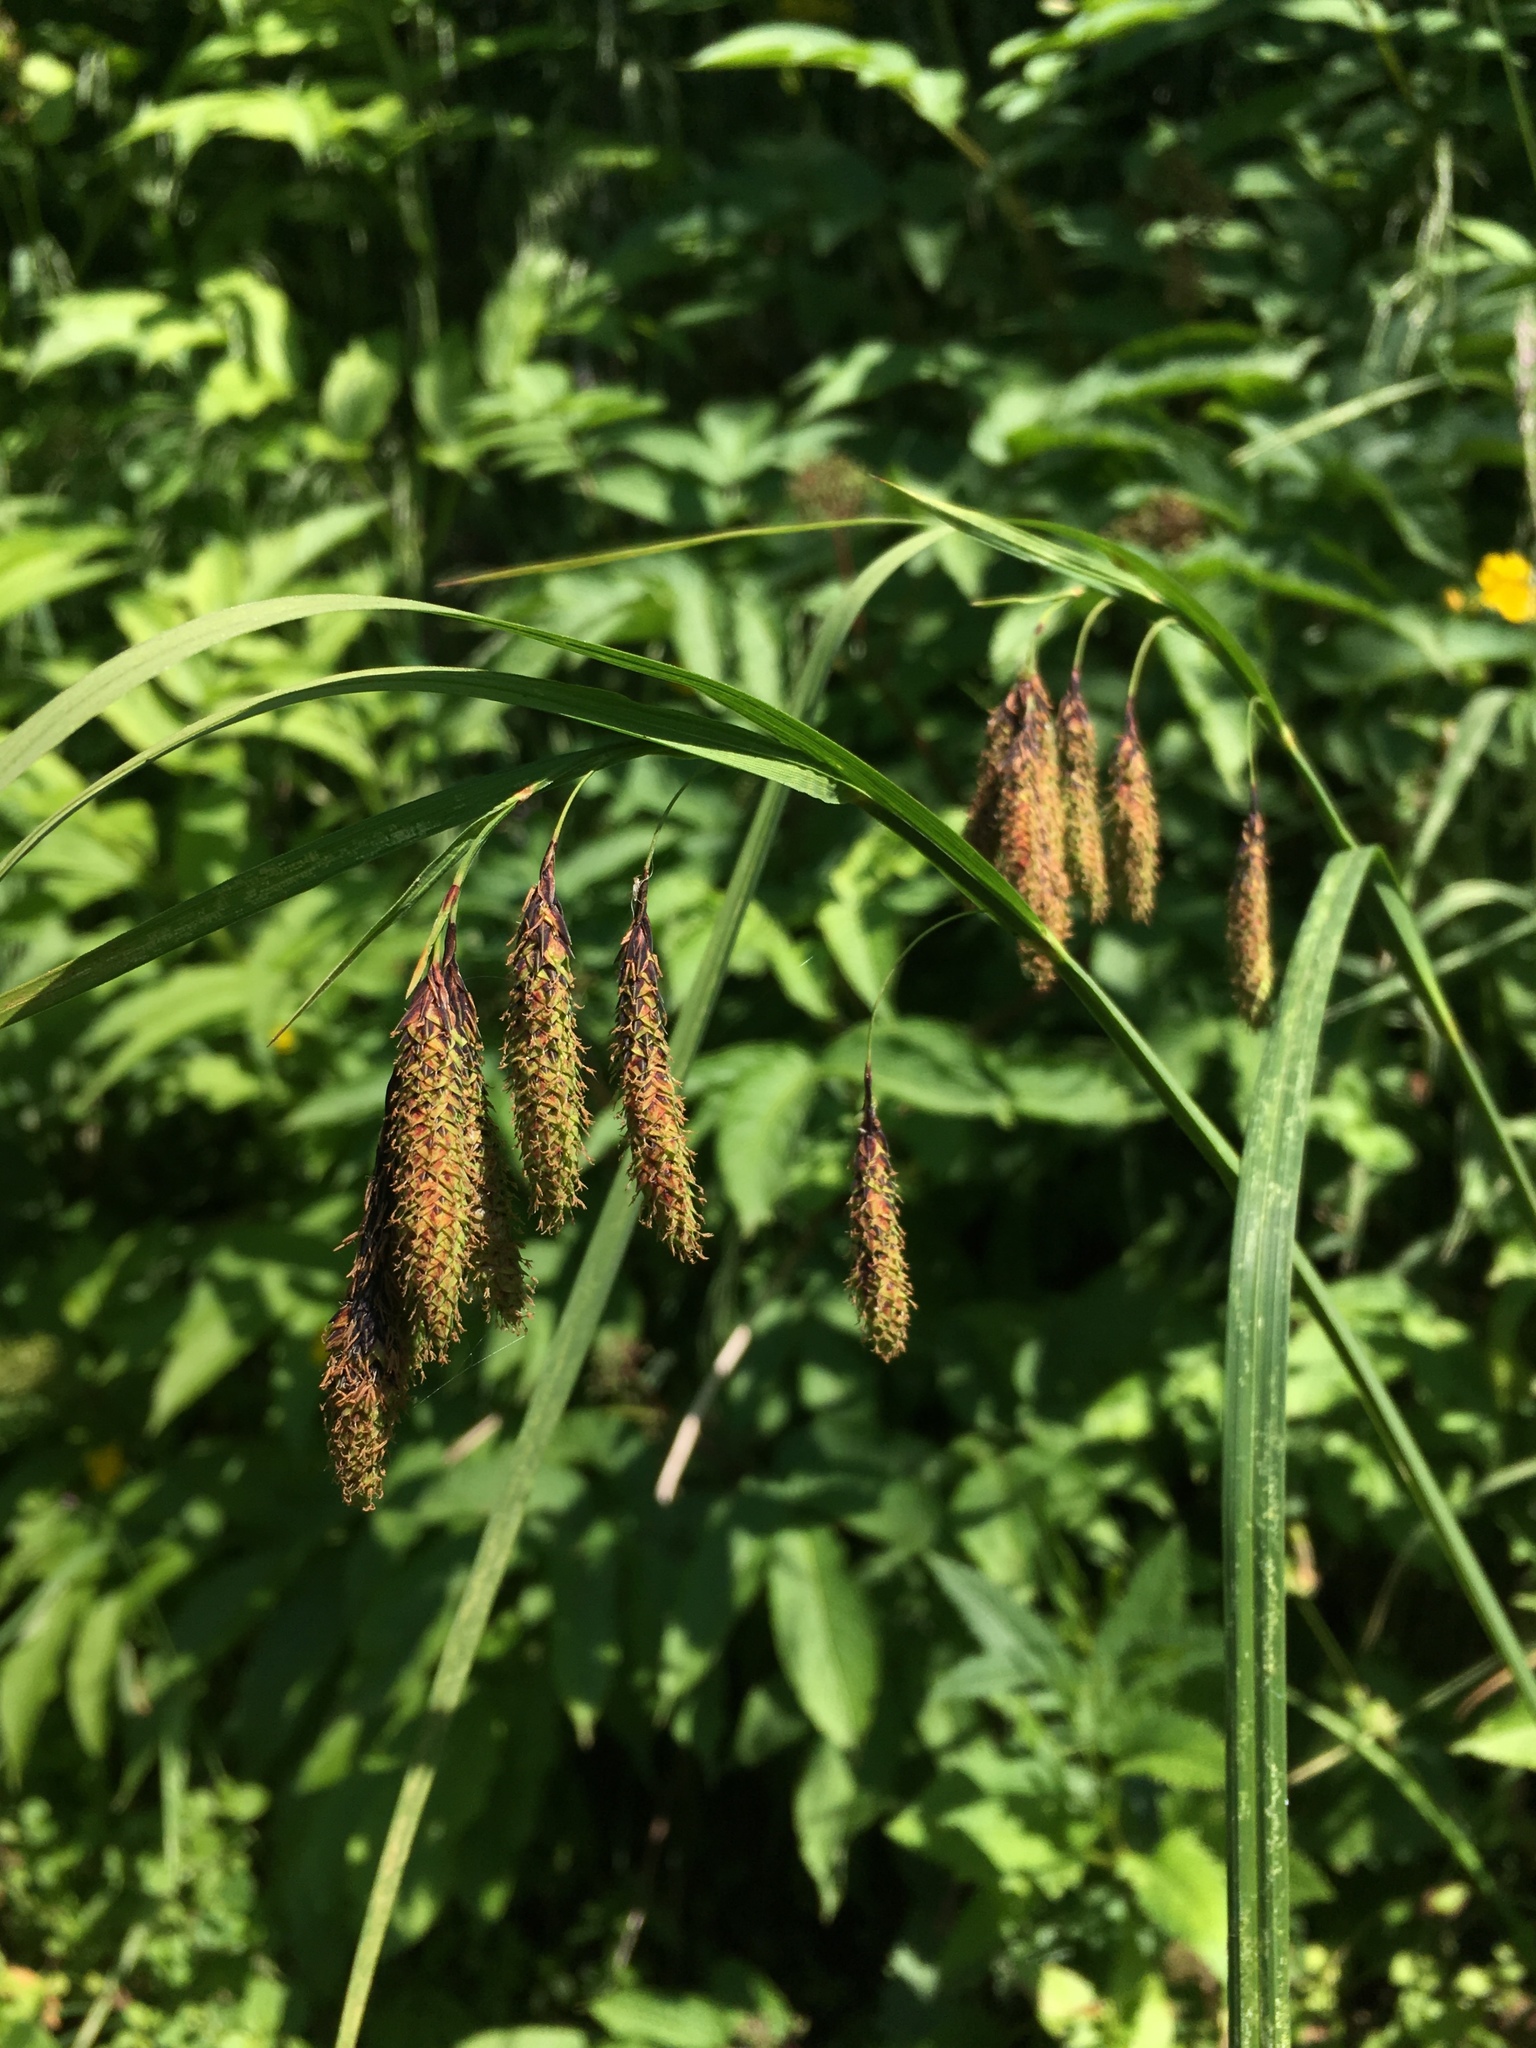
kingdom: Plantae
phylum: Tracheophyta
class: Liliopsida
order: Poales
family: Cyperaceae
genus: Carex
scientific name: Carex mertensii
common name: Mertens' sedge
